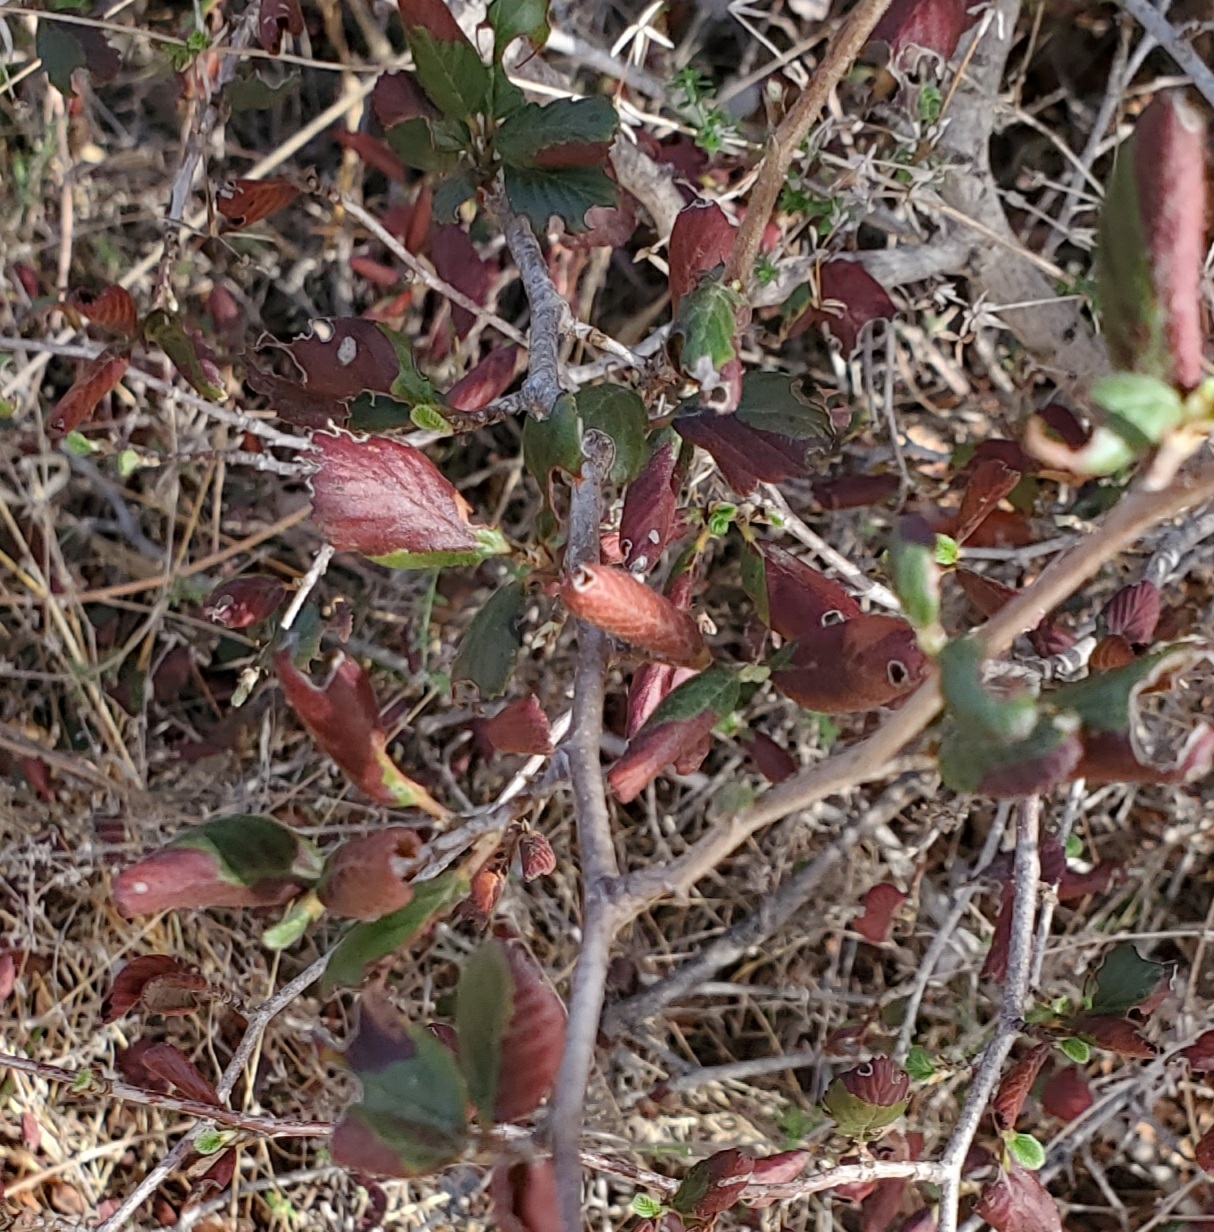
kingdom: Plantae
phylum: Tracheophyta
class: Magnoliopsida
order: Rosales
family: Rosaceae
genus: Cercocarpus
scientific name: Cercocarpus betuloides
